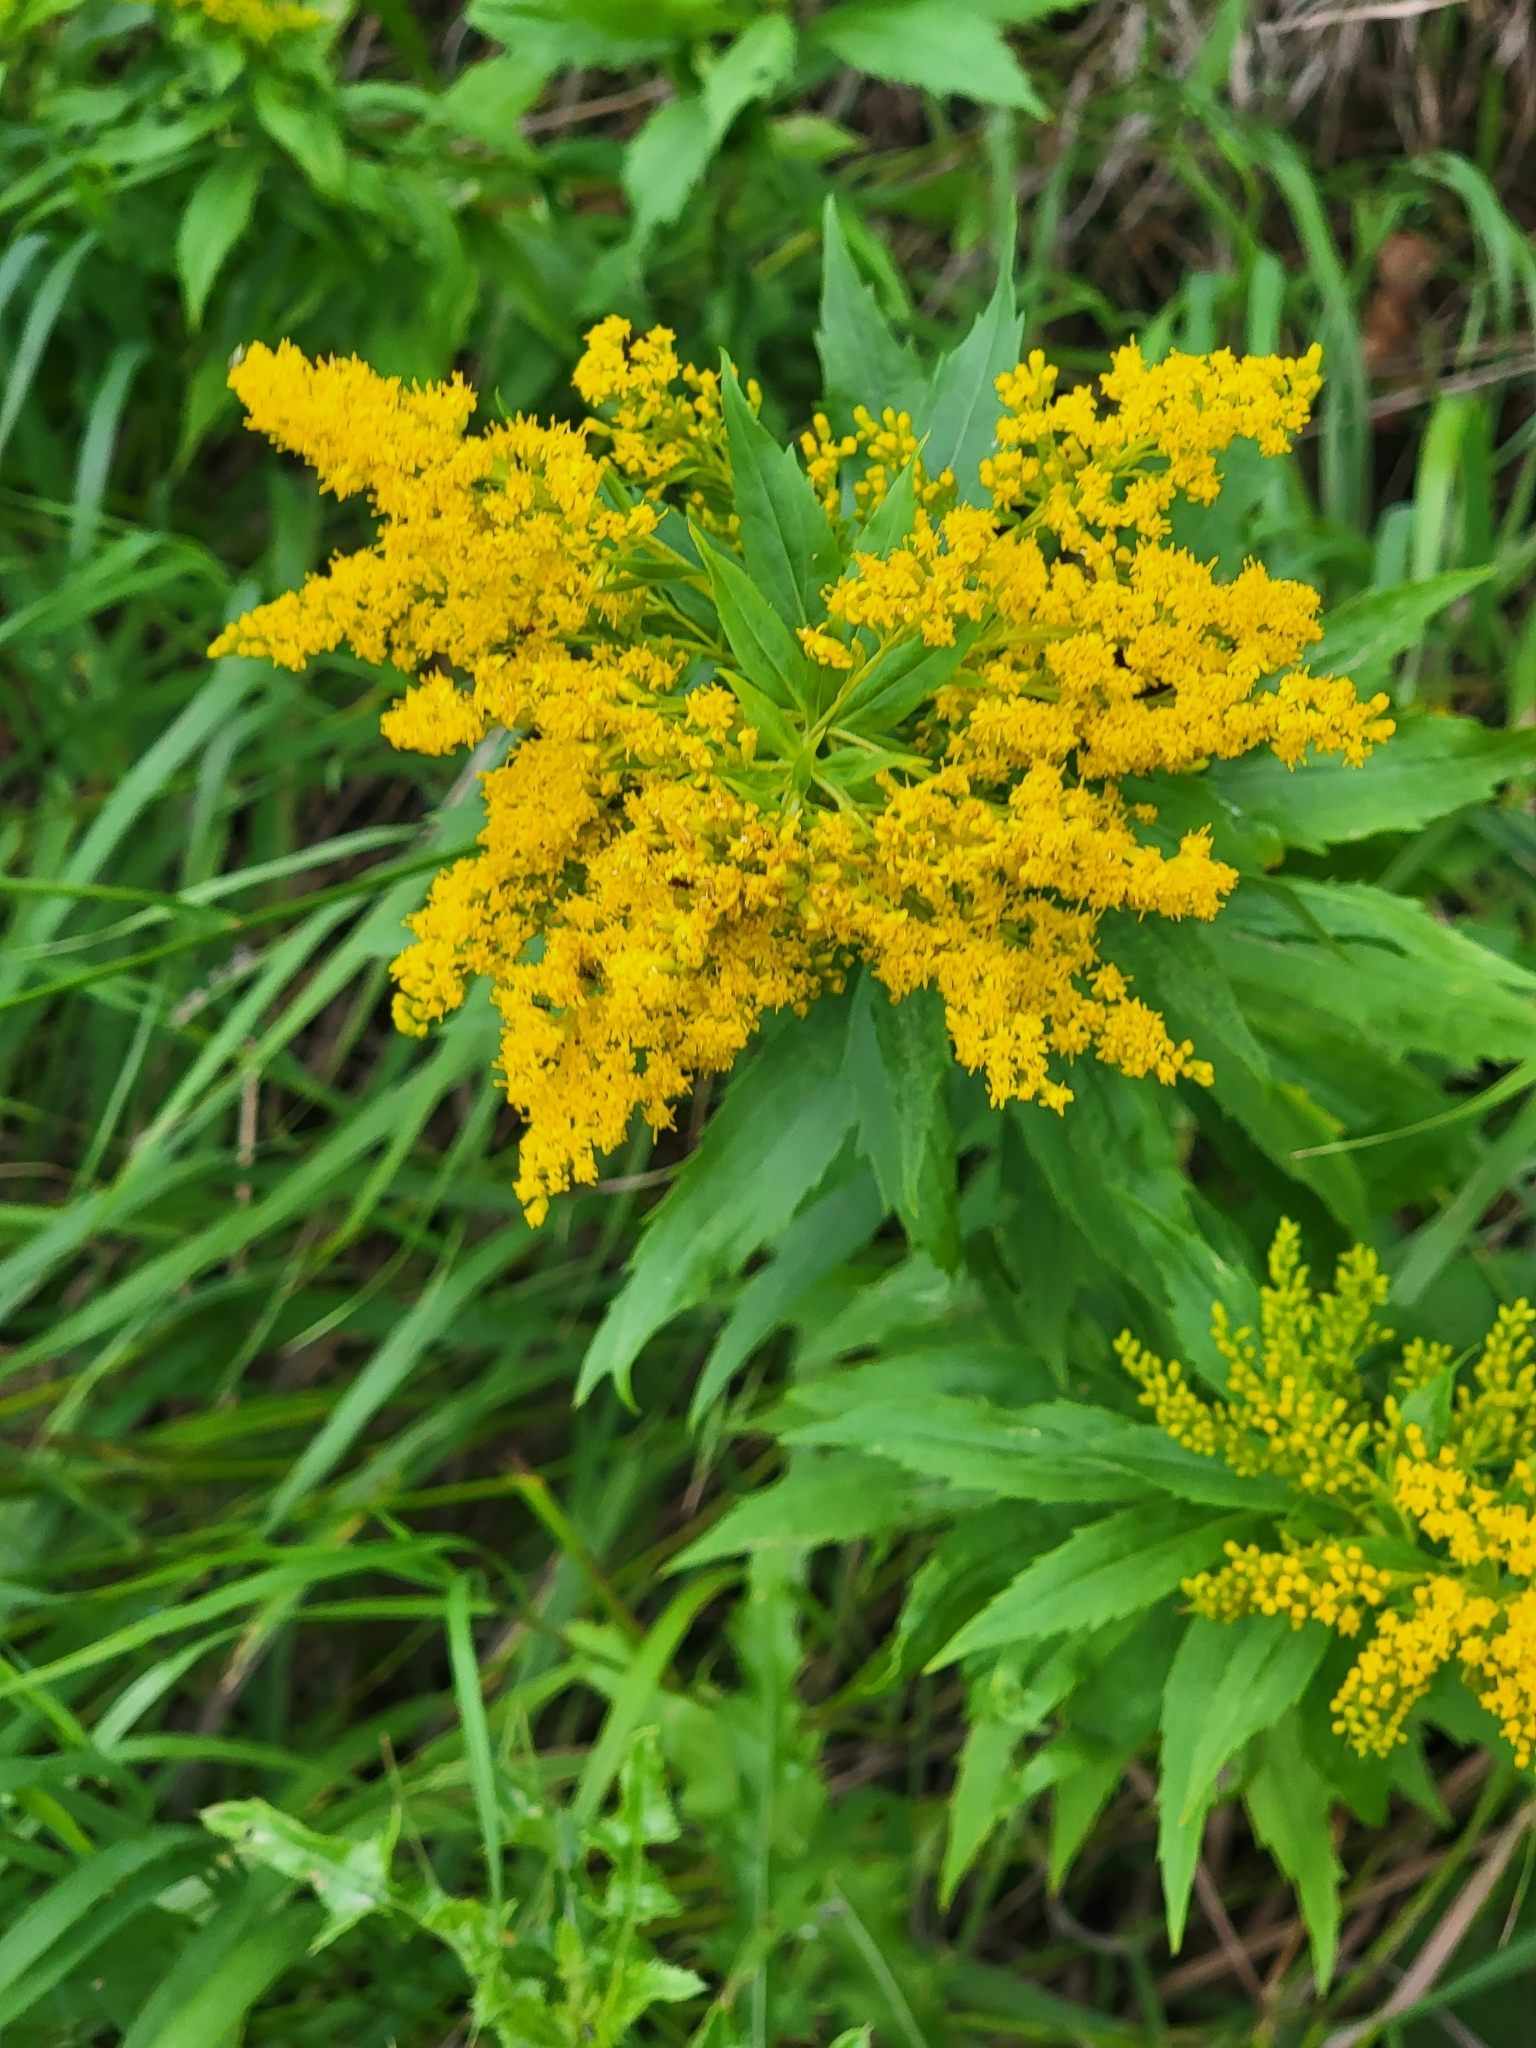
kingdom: Plantae
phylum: Tracheophyta
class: Magnoliopsida
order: Asterales
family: Asteraceae
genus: Solidago
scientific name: Solidago canadensis
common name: Canada goldenrod
